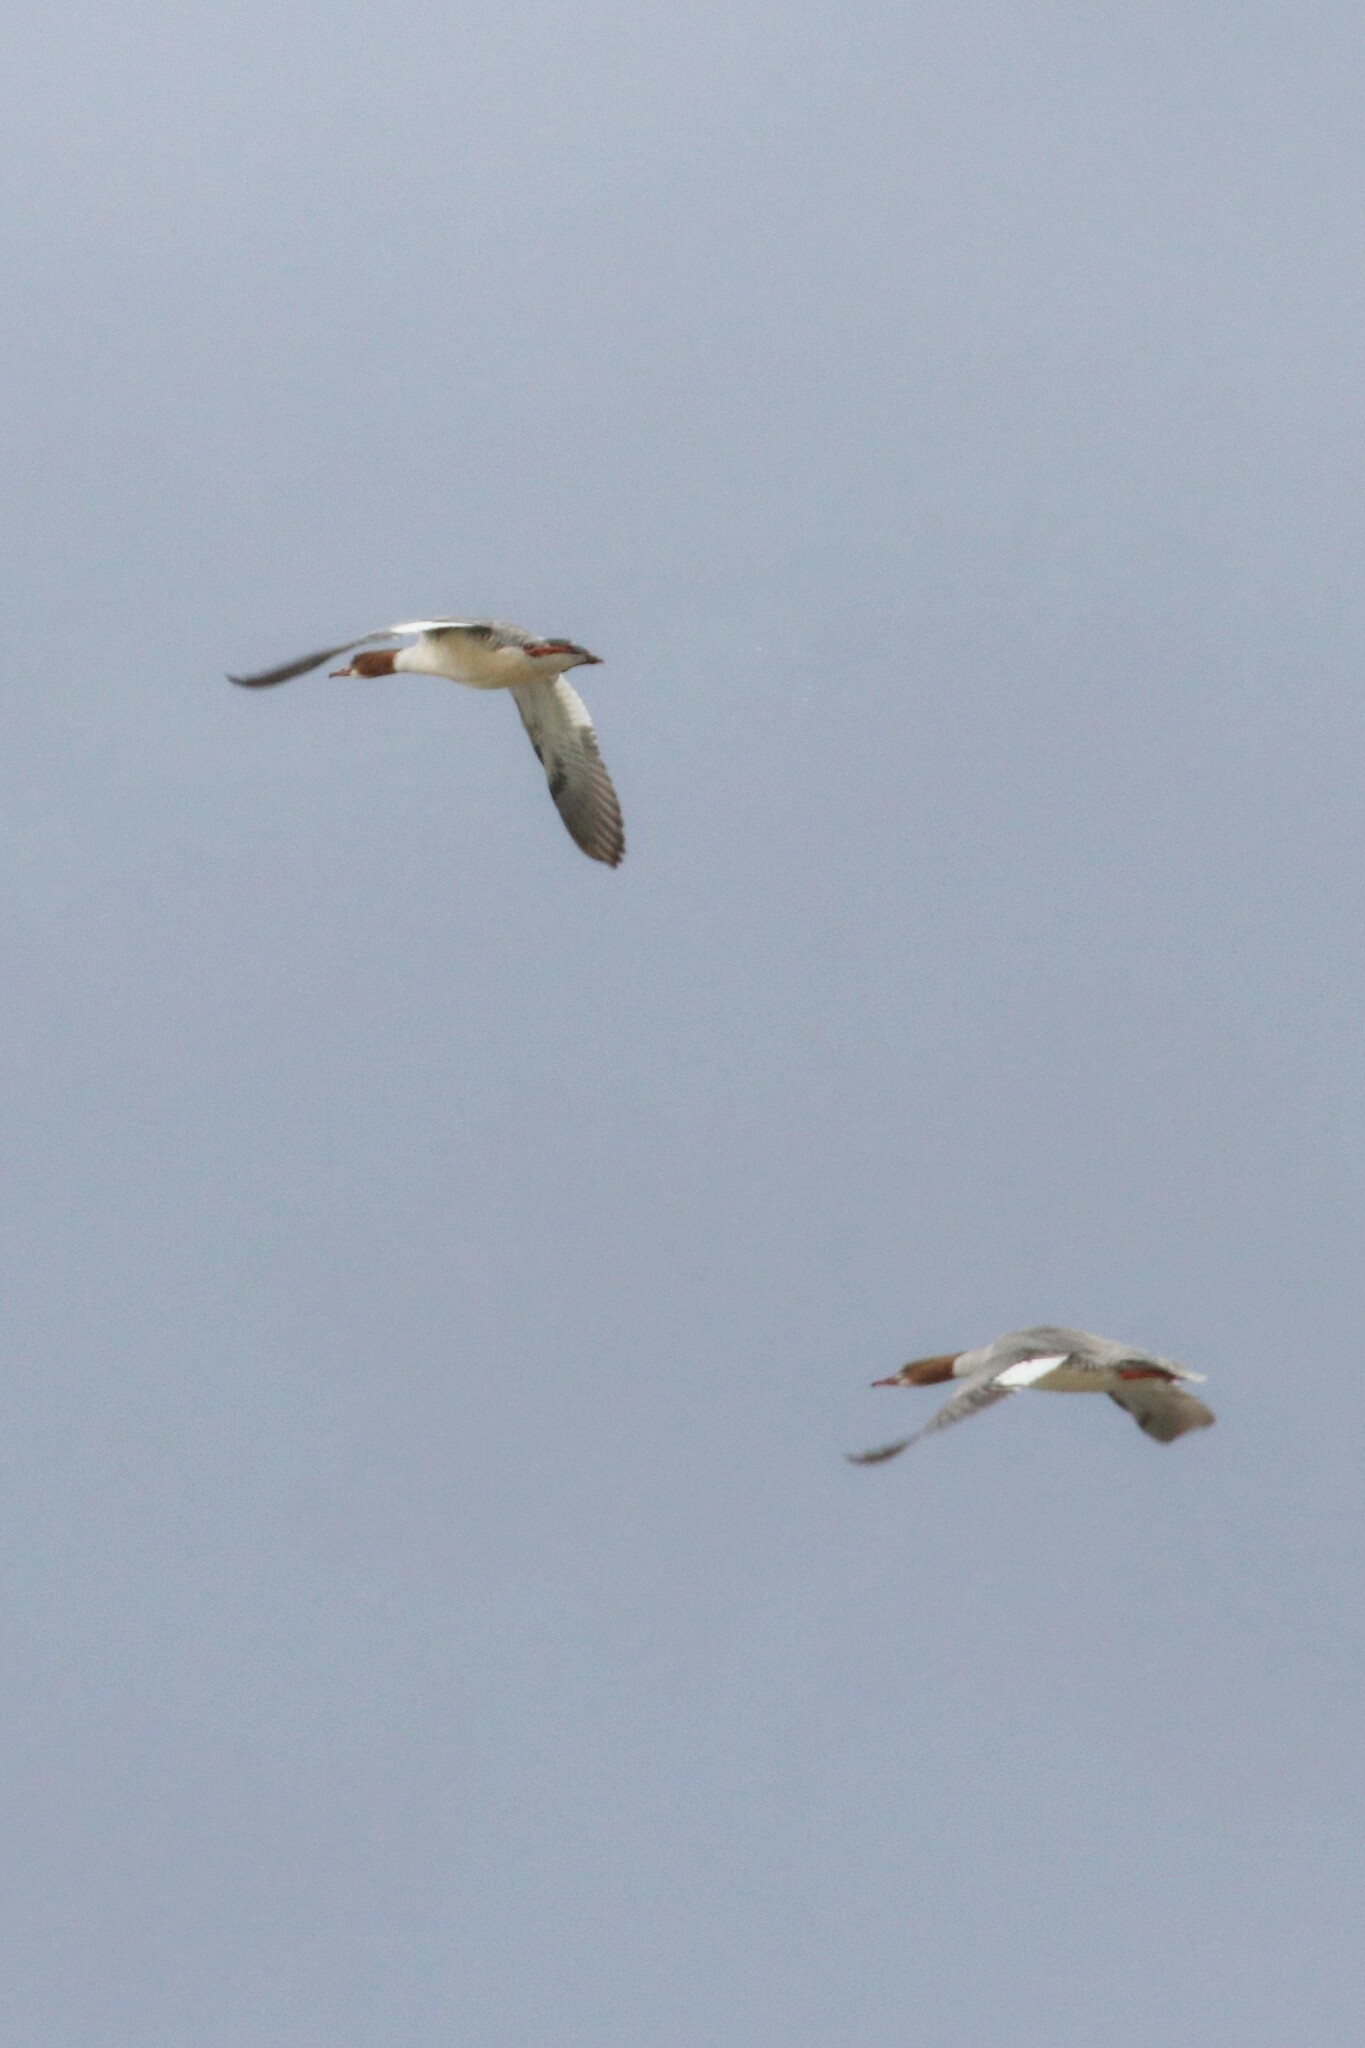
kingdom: Animalia
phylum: Chordata
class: Aves
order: Anseriformes
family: Anatidae
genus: Mergus
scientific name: Mergus merganser
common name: Common merganser
